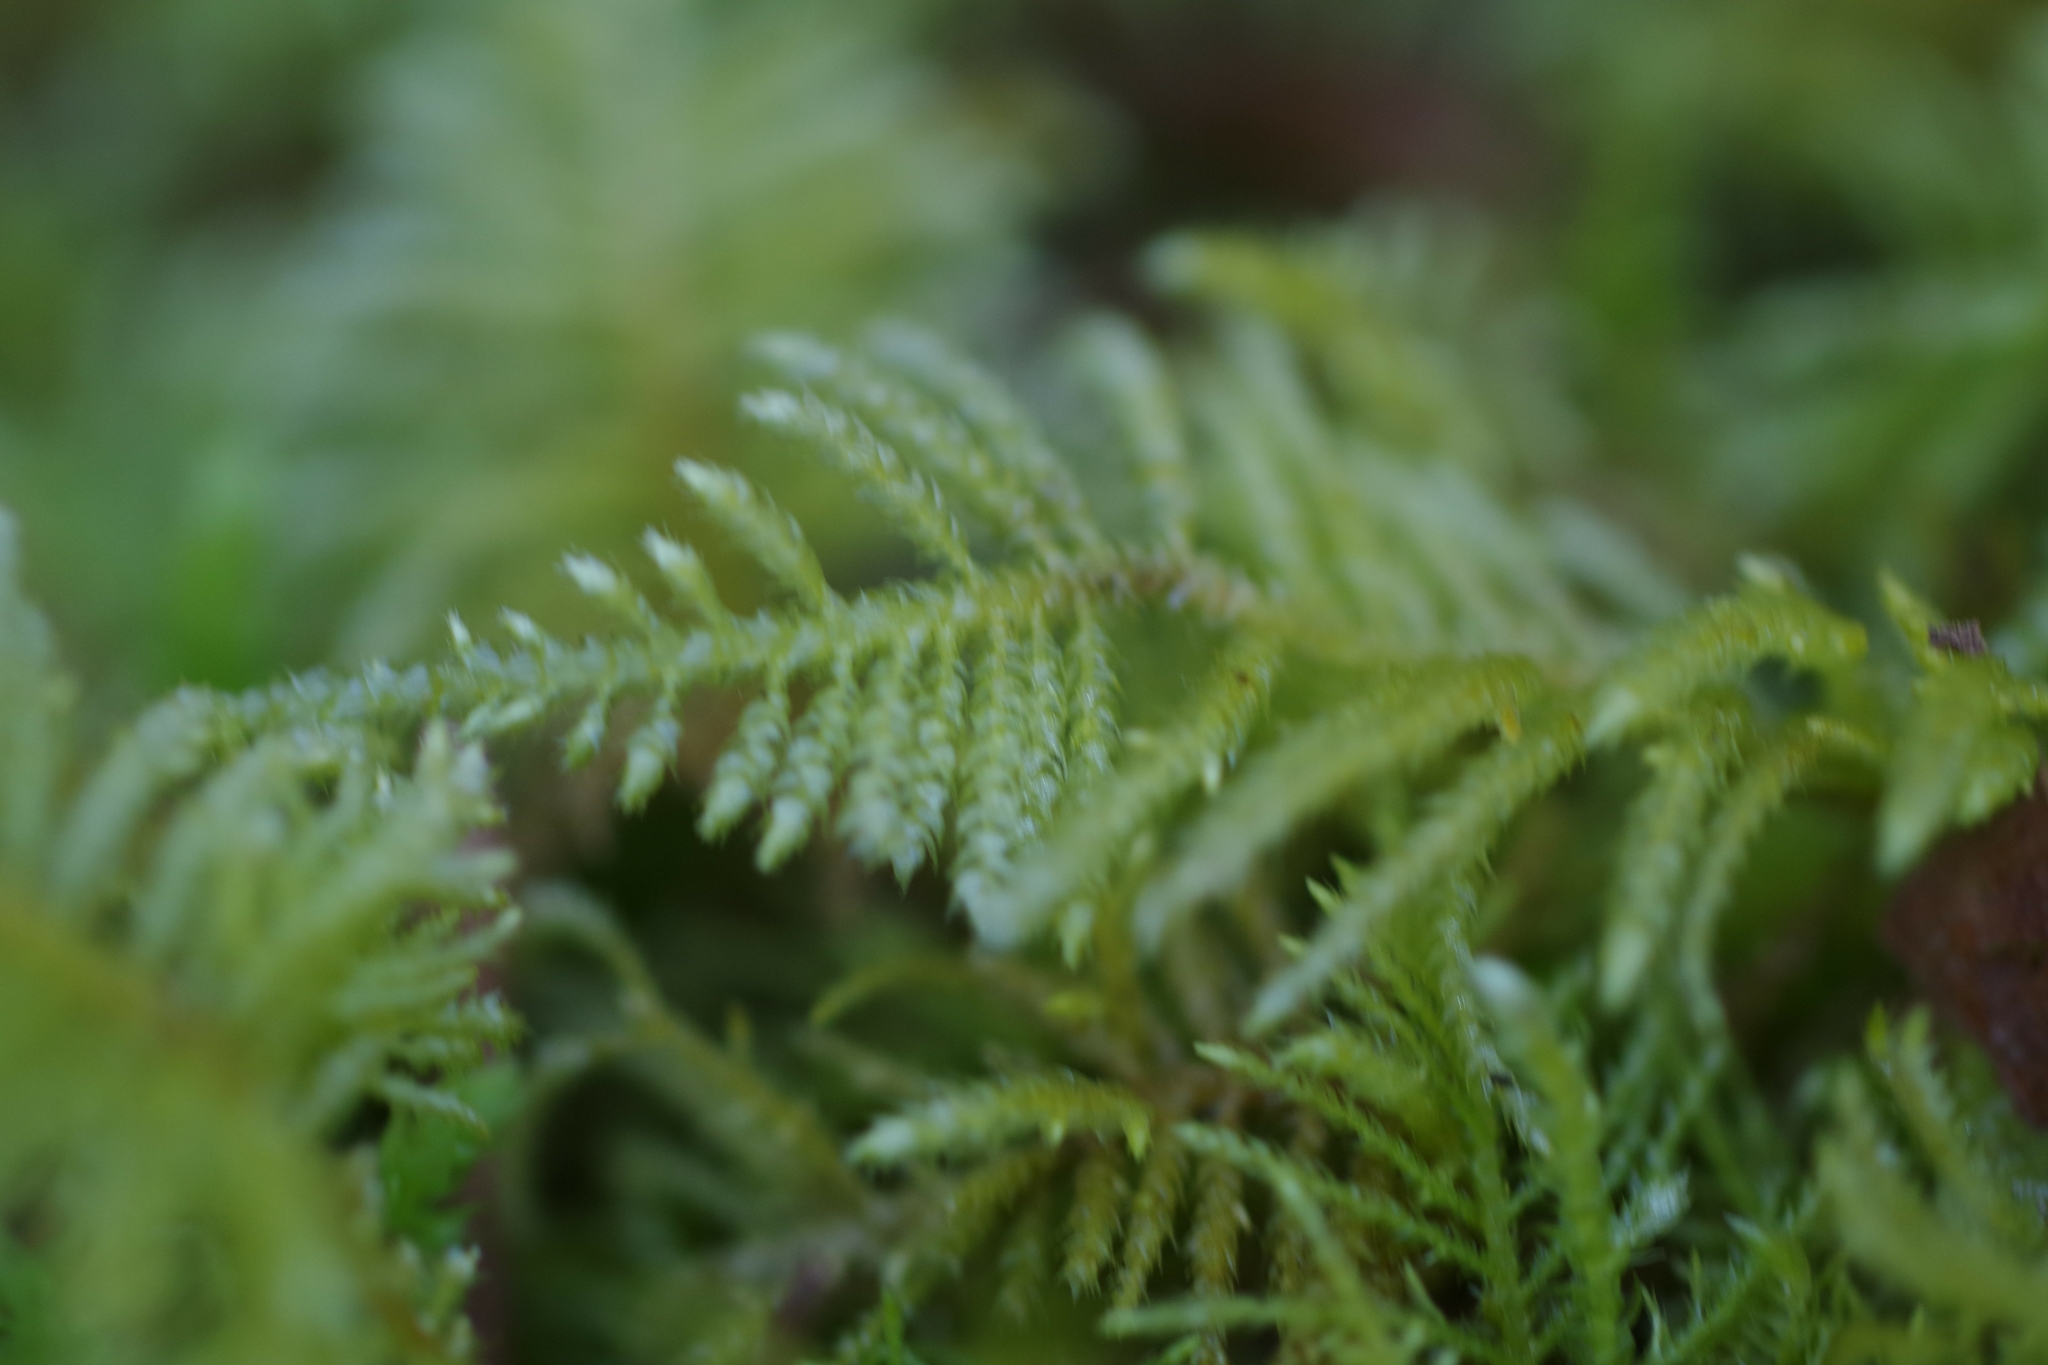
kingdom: Plantae
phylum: Bryophyta
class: Bryopsida
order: Hypnales
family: Brachytheciaceae
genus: Kindbergia
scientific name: Kindbergia oregana
